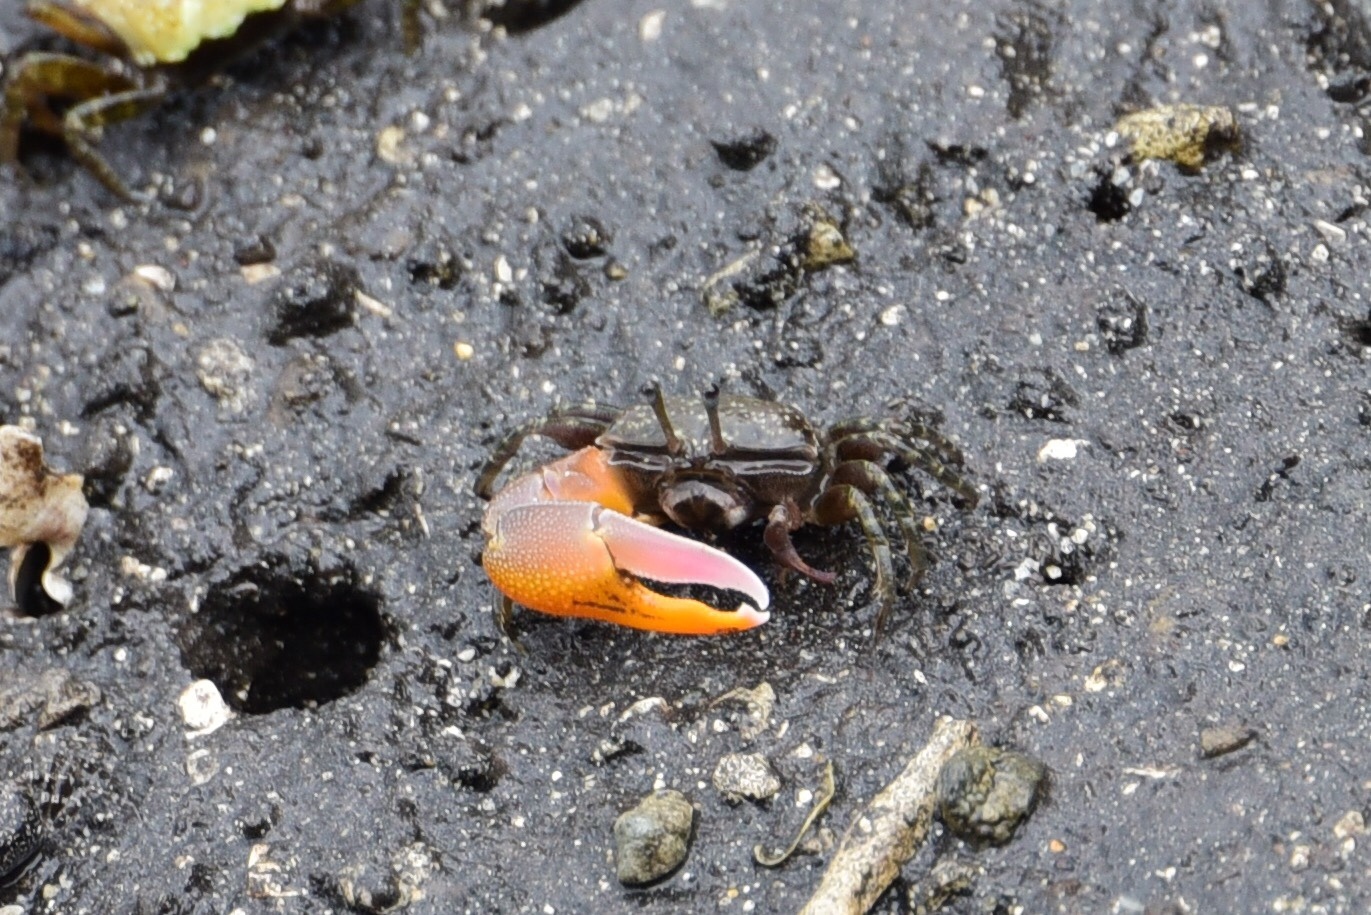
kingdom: Animalia
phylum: Arthropoda
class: Malacostraca
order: Decapoda
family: Ocypodidae
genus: Gelasimus
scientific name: Gelasimus jocelynae
